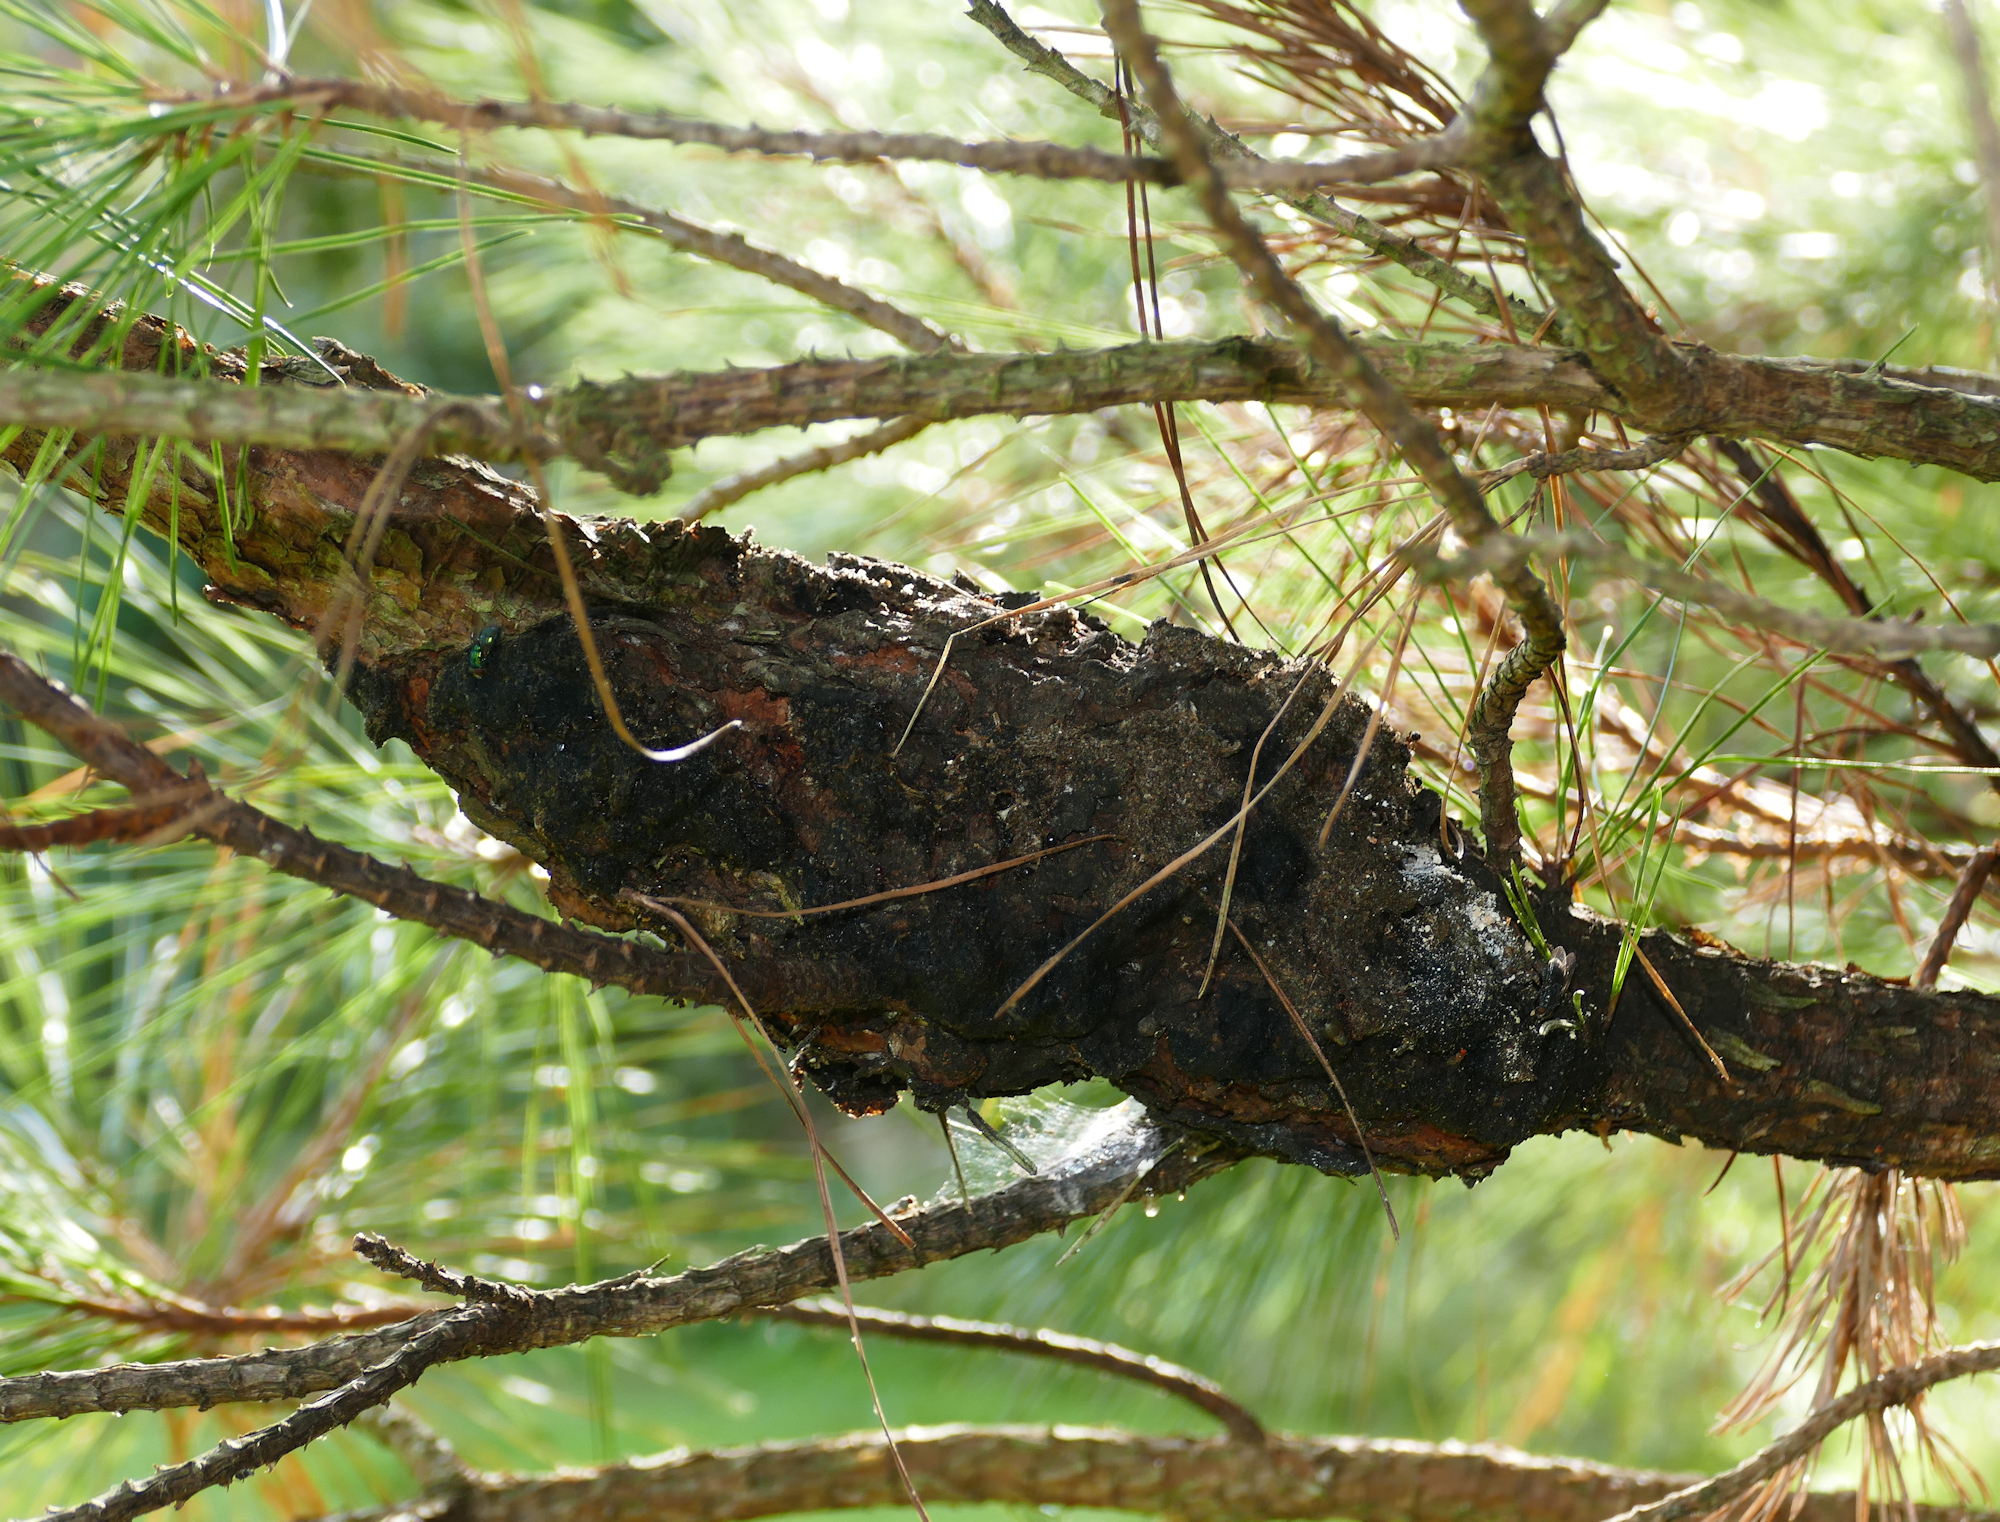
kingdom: Fungi
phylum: Basidiomycota
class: Pucciniomycetes
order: Pucciniales
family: Cronartiaceae
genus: Cronartium
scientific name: Cronartium fusiforme
